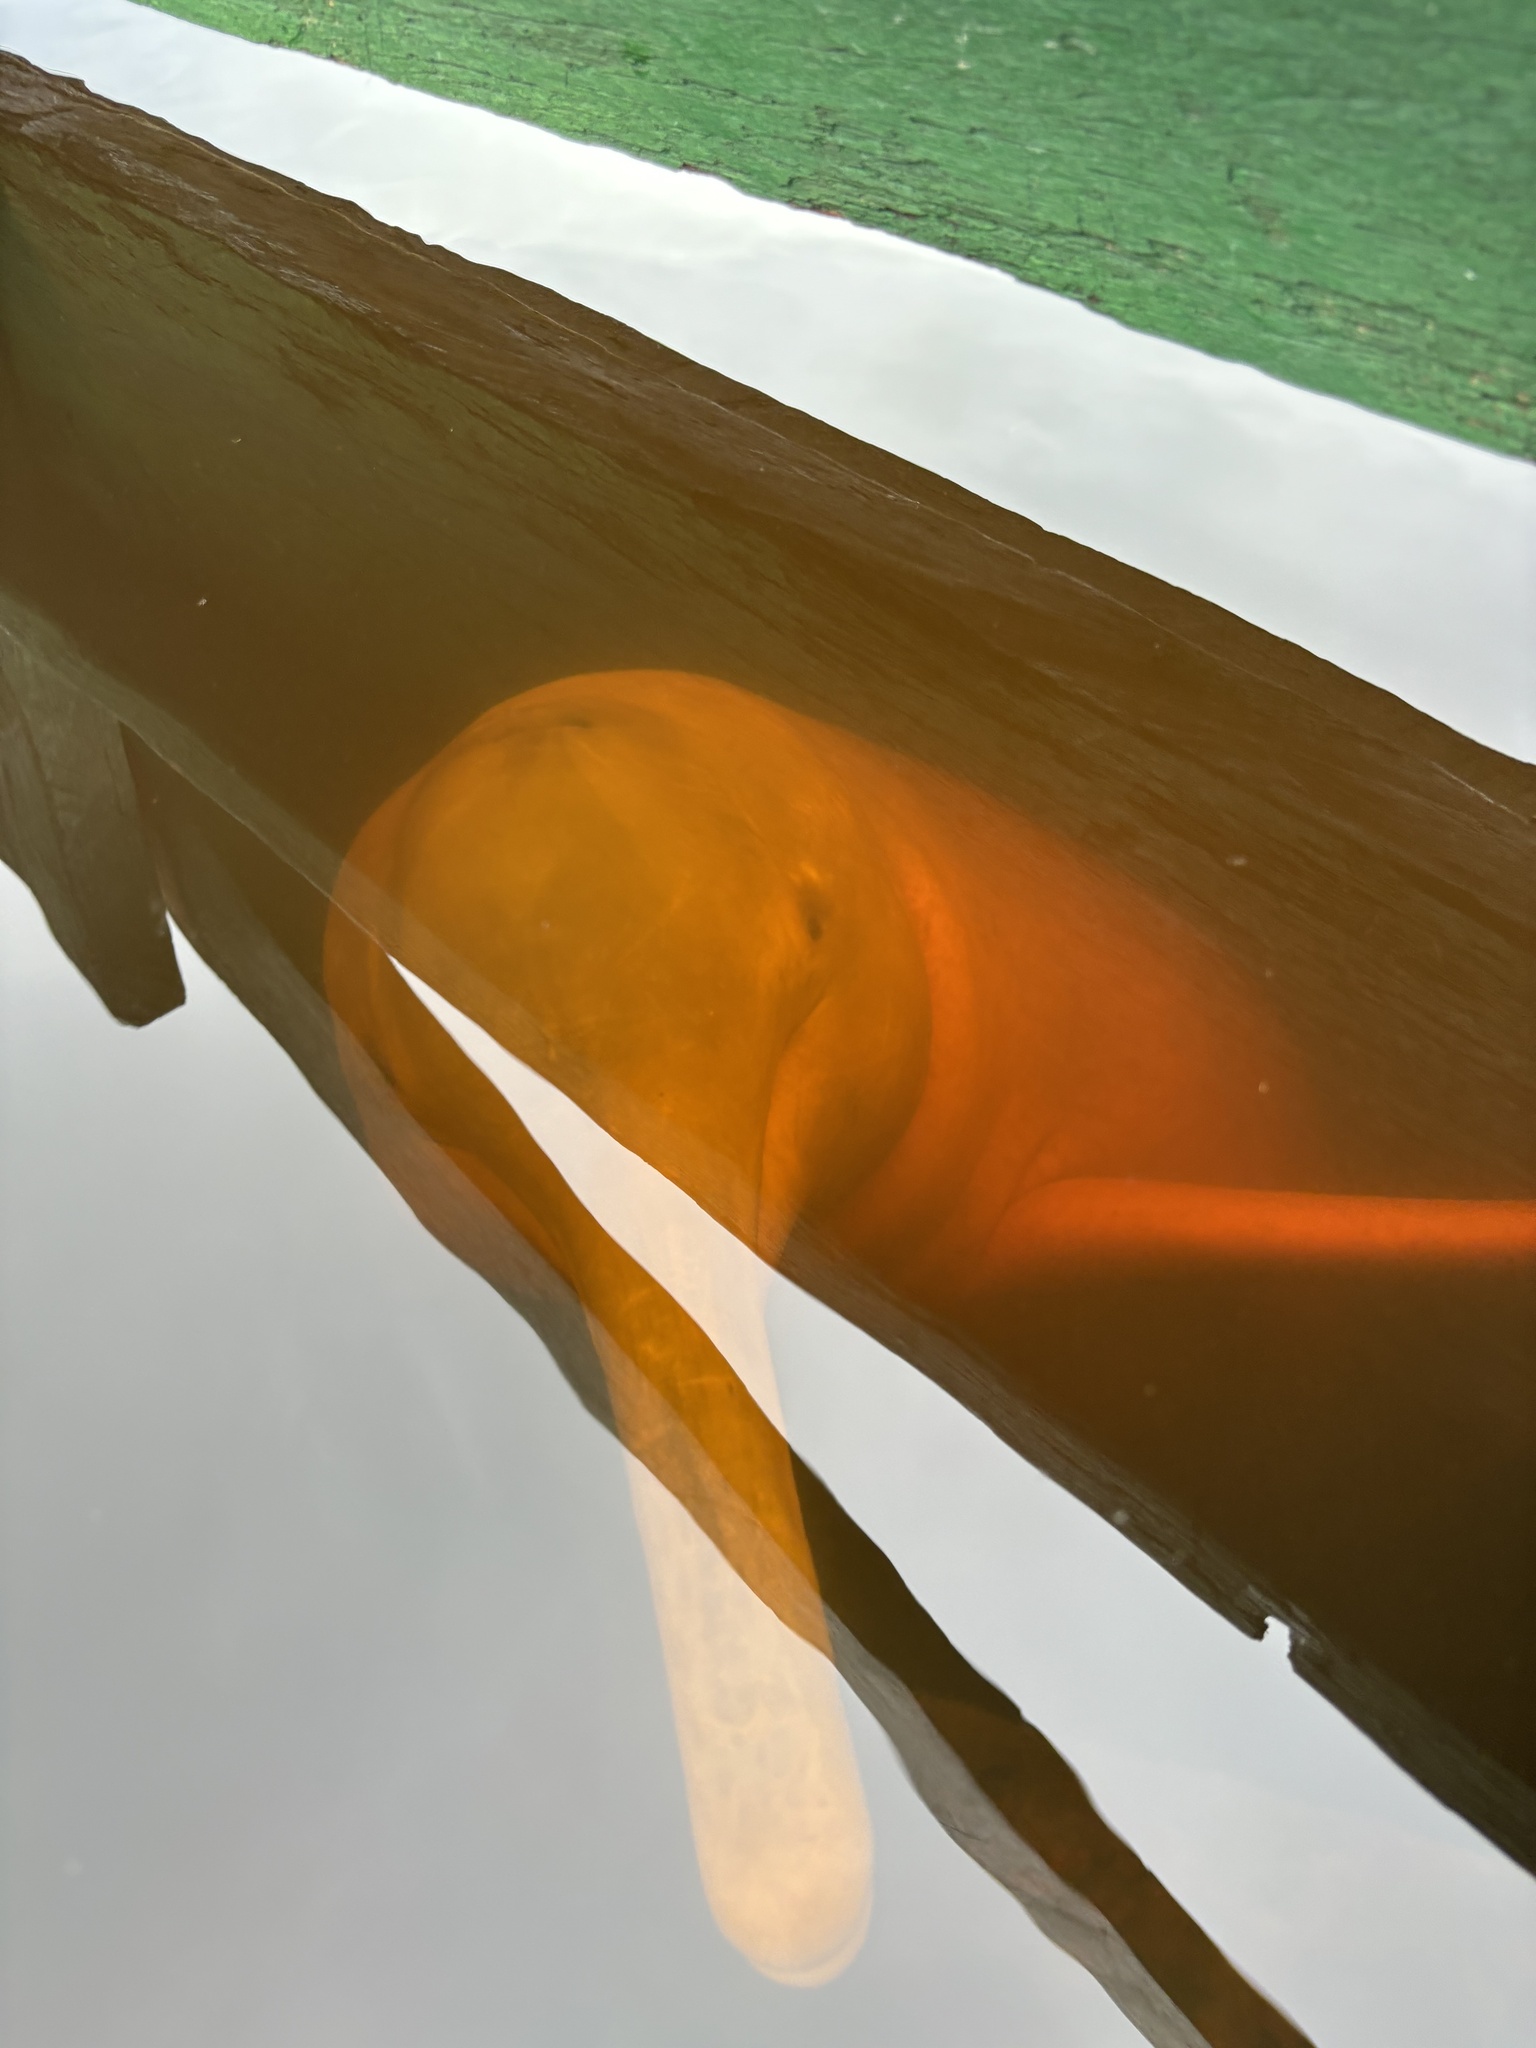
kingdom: Animalia
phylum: Chordata
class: Mammalia
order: Cetacea
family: Iniidae
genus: Inia
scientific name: Inia geoffrensis
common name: Amazon river dolphin
